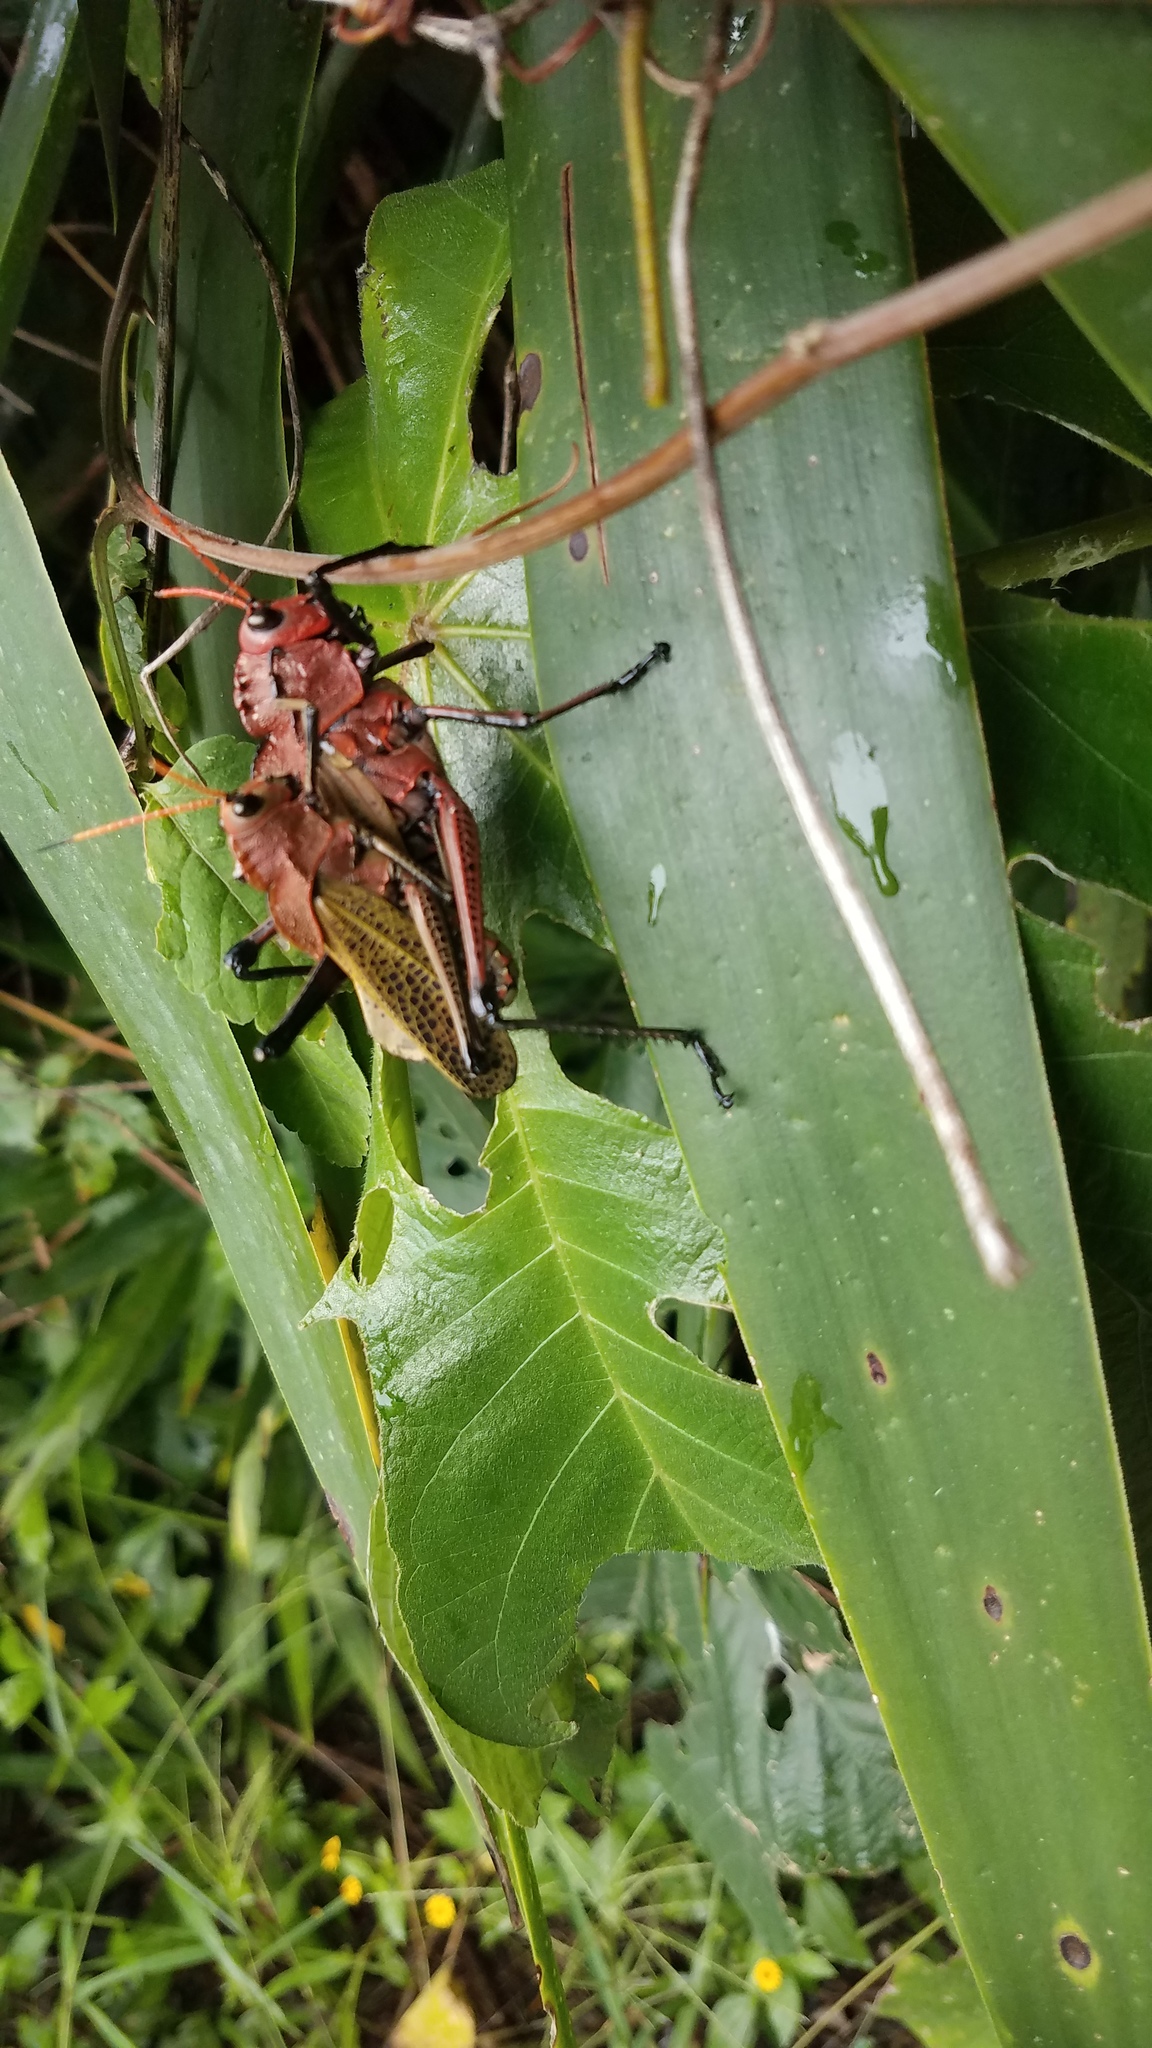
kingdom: Animalia
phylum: Arthropoda
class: Insecta
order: Orthoptera
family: Romaleidae
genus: Romalea
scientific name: Romalea
